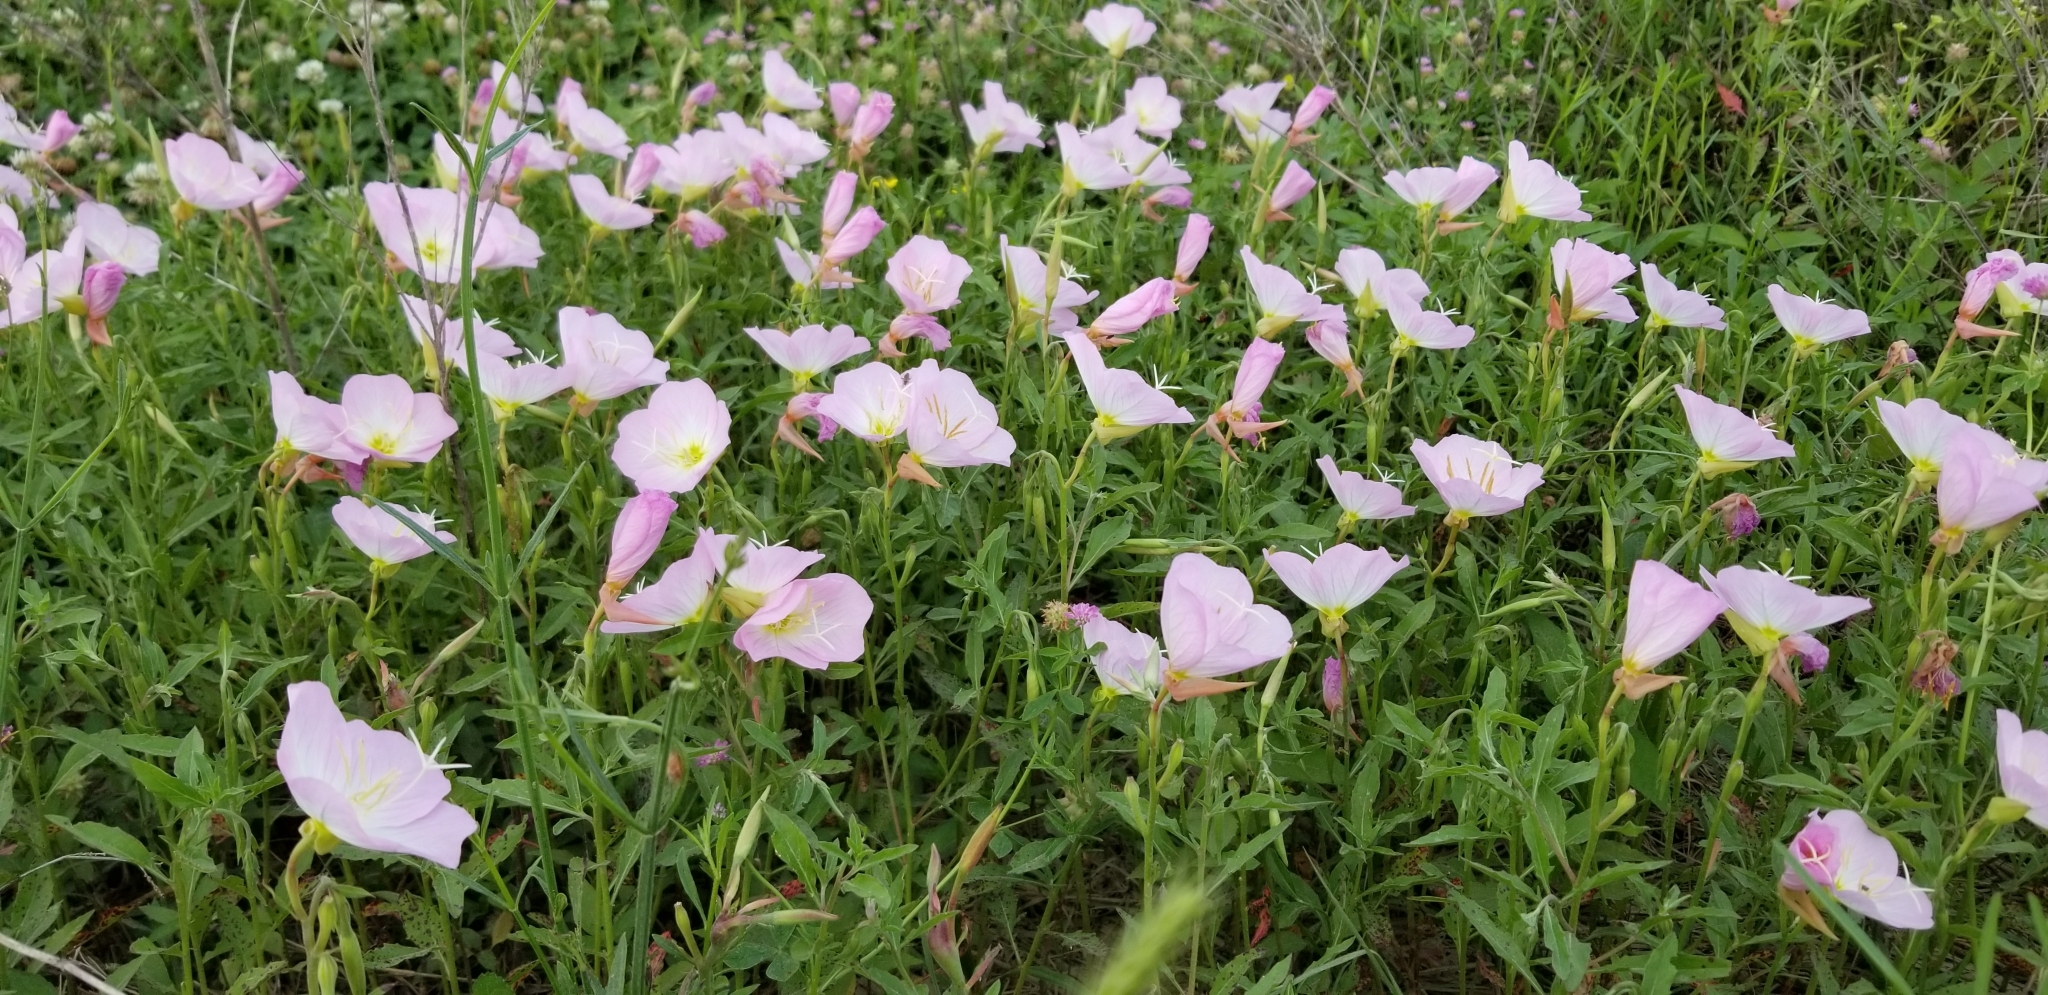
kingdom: Plantae
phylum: Tracheophyta
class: Magnoliopsida
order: Myrtales
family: Onagraceae
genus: Oenothera
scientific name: Oenothera speciosa
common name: White evening-primrose
